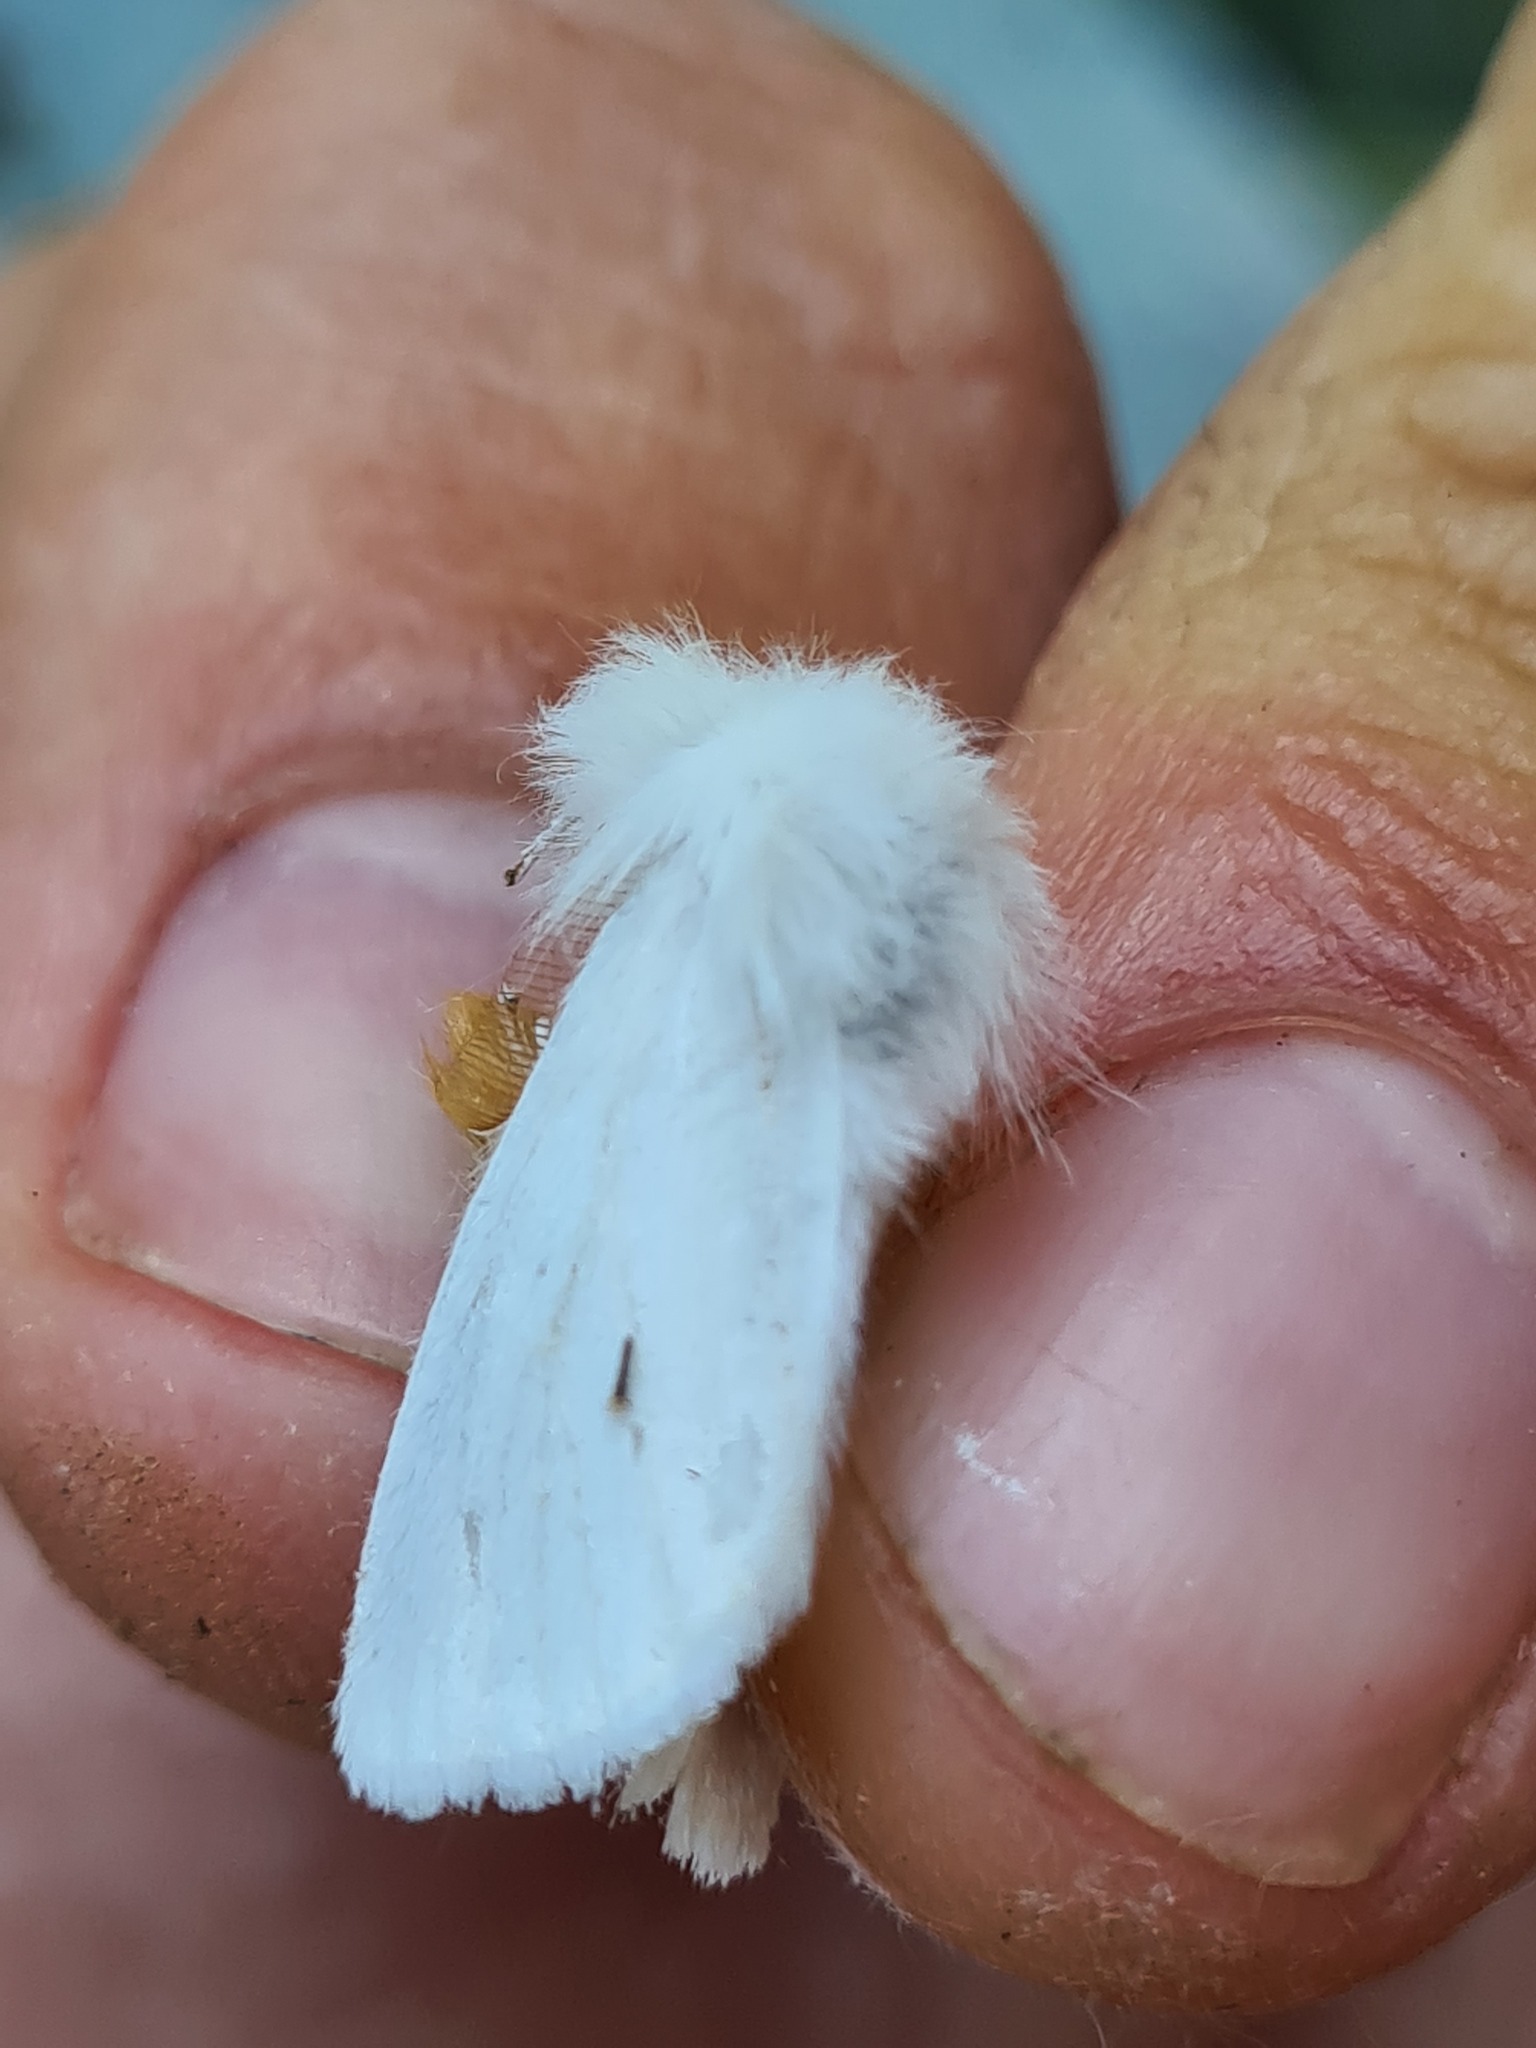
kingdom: Animalia
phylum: Arthropoda
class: Insecta
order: Lepidoptera
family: Erebidae
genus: Euproctis
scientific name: Euproctis chrysorrhoea
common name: Brown-tail
